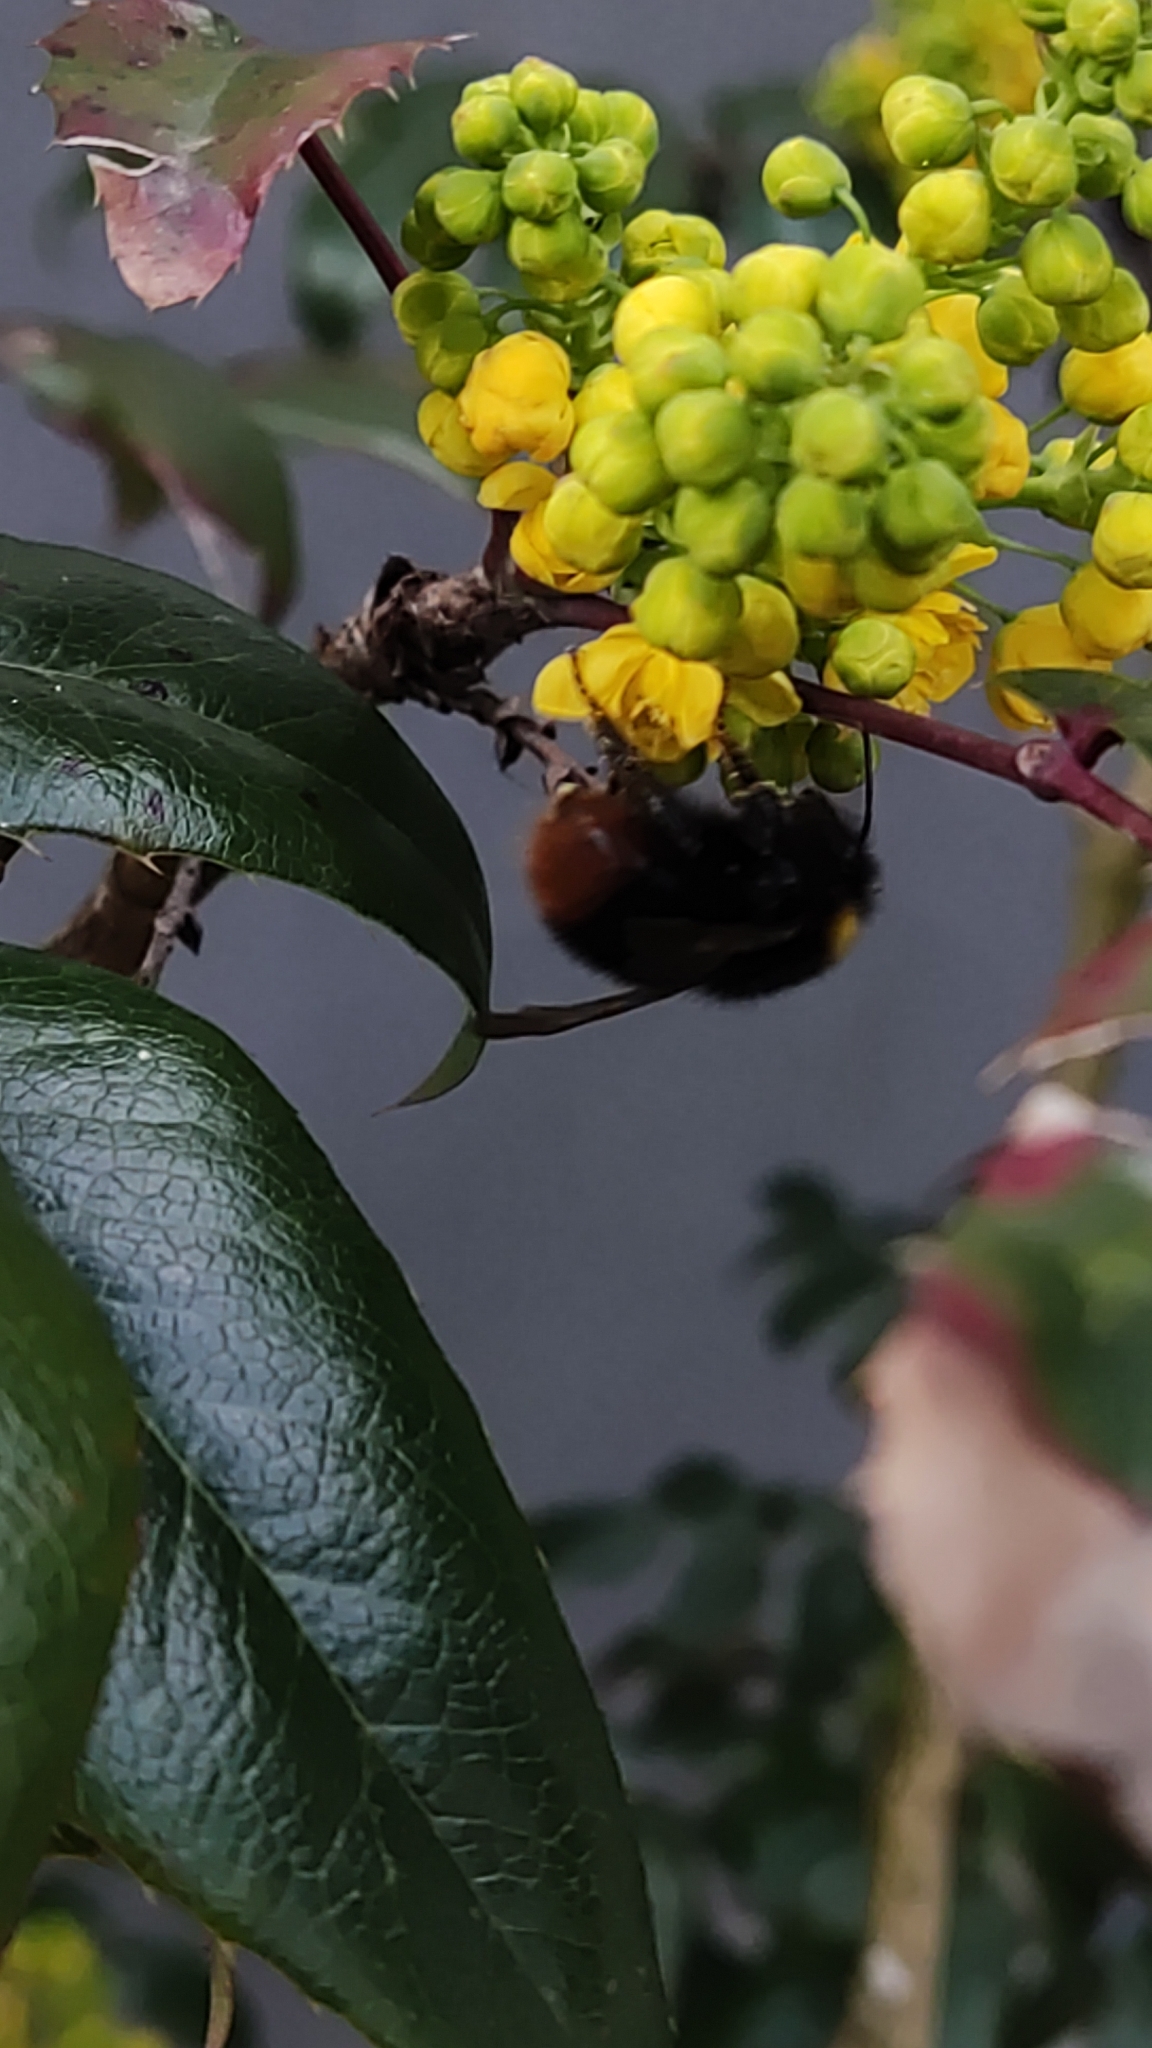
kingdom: Animalia
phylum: Arthropoda
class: Insecta
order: Hymenoptera
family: Apidae
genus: Bombus
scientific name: Bombus pratorum
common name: Early humble-bee
